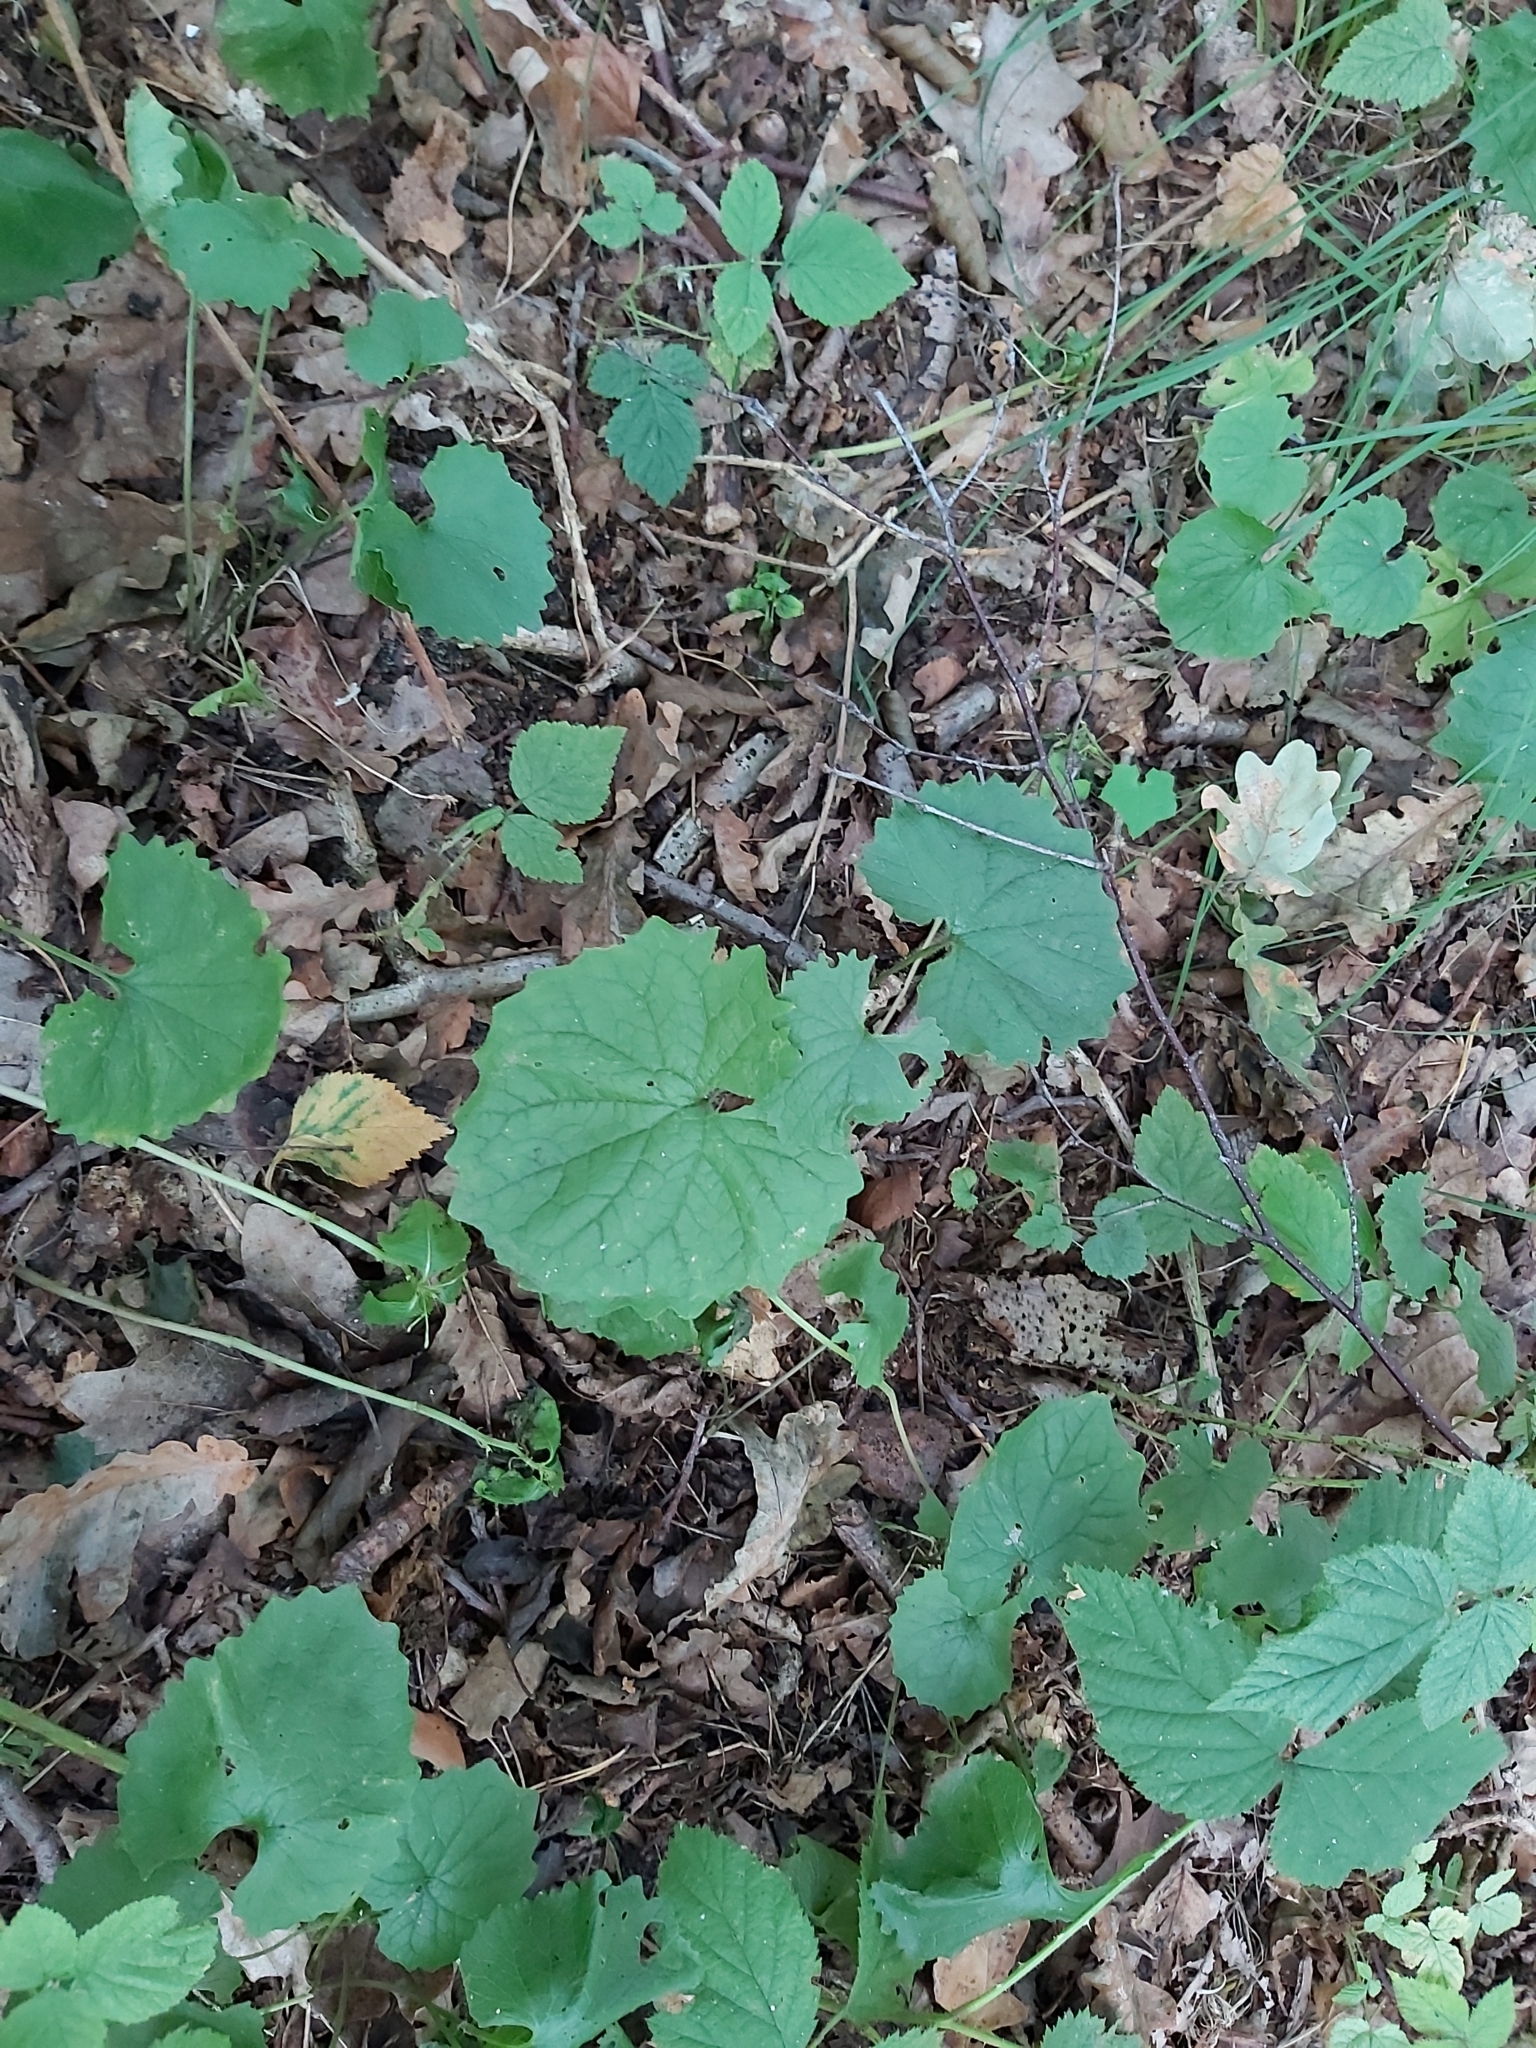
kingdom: Plantae
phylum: Tracheophyta
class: Magnoliopsida
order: Brassicales
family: Brassicaceae
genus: Alliaria
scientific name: Alliaria petiolata
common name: Garlic mustard
